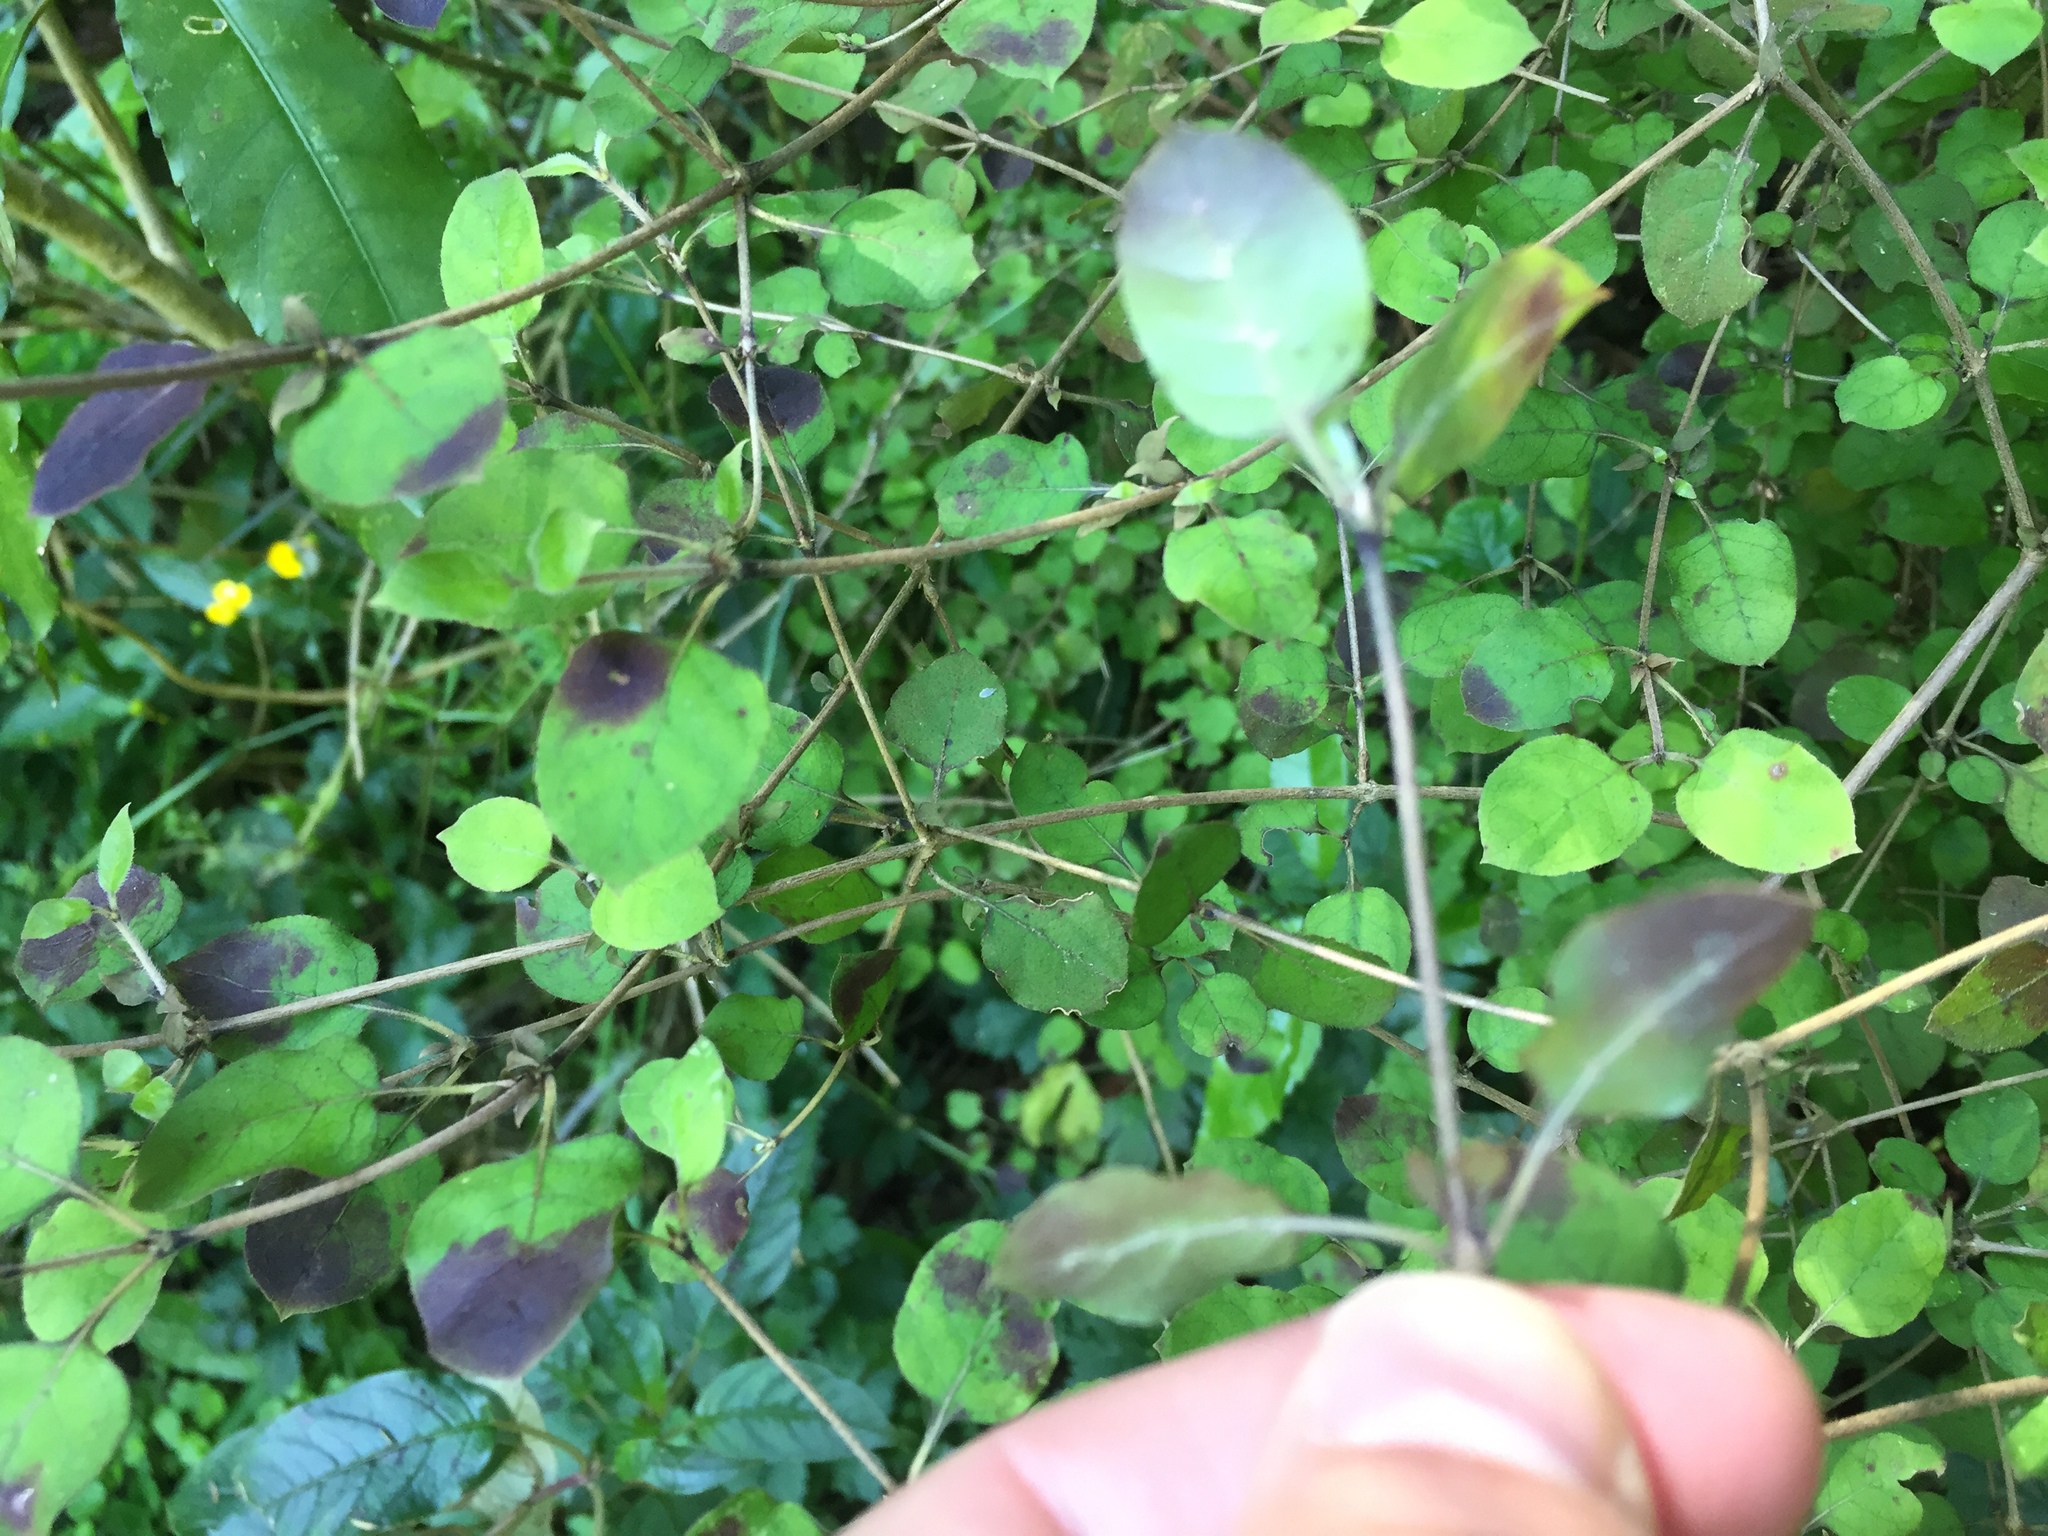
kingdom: Plantae
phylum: Tracheophyta
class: Magnoliopsida
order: Gentianales
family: Rubiaceae
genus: Coprosma
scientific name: Coprosma rotundifolia
